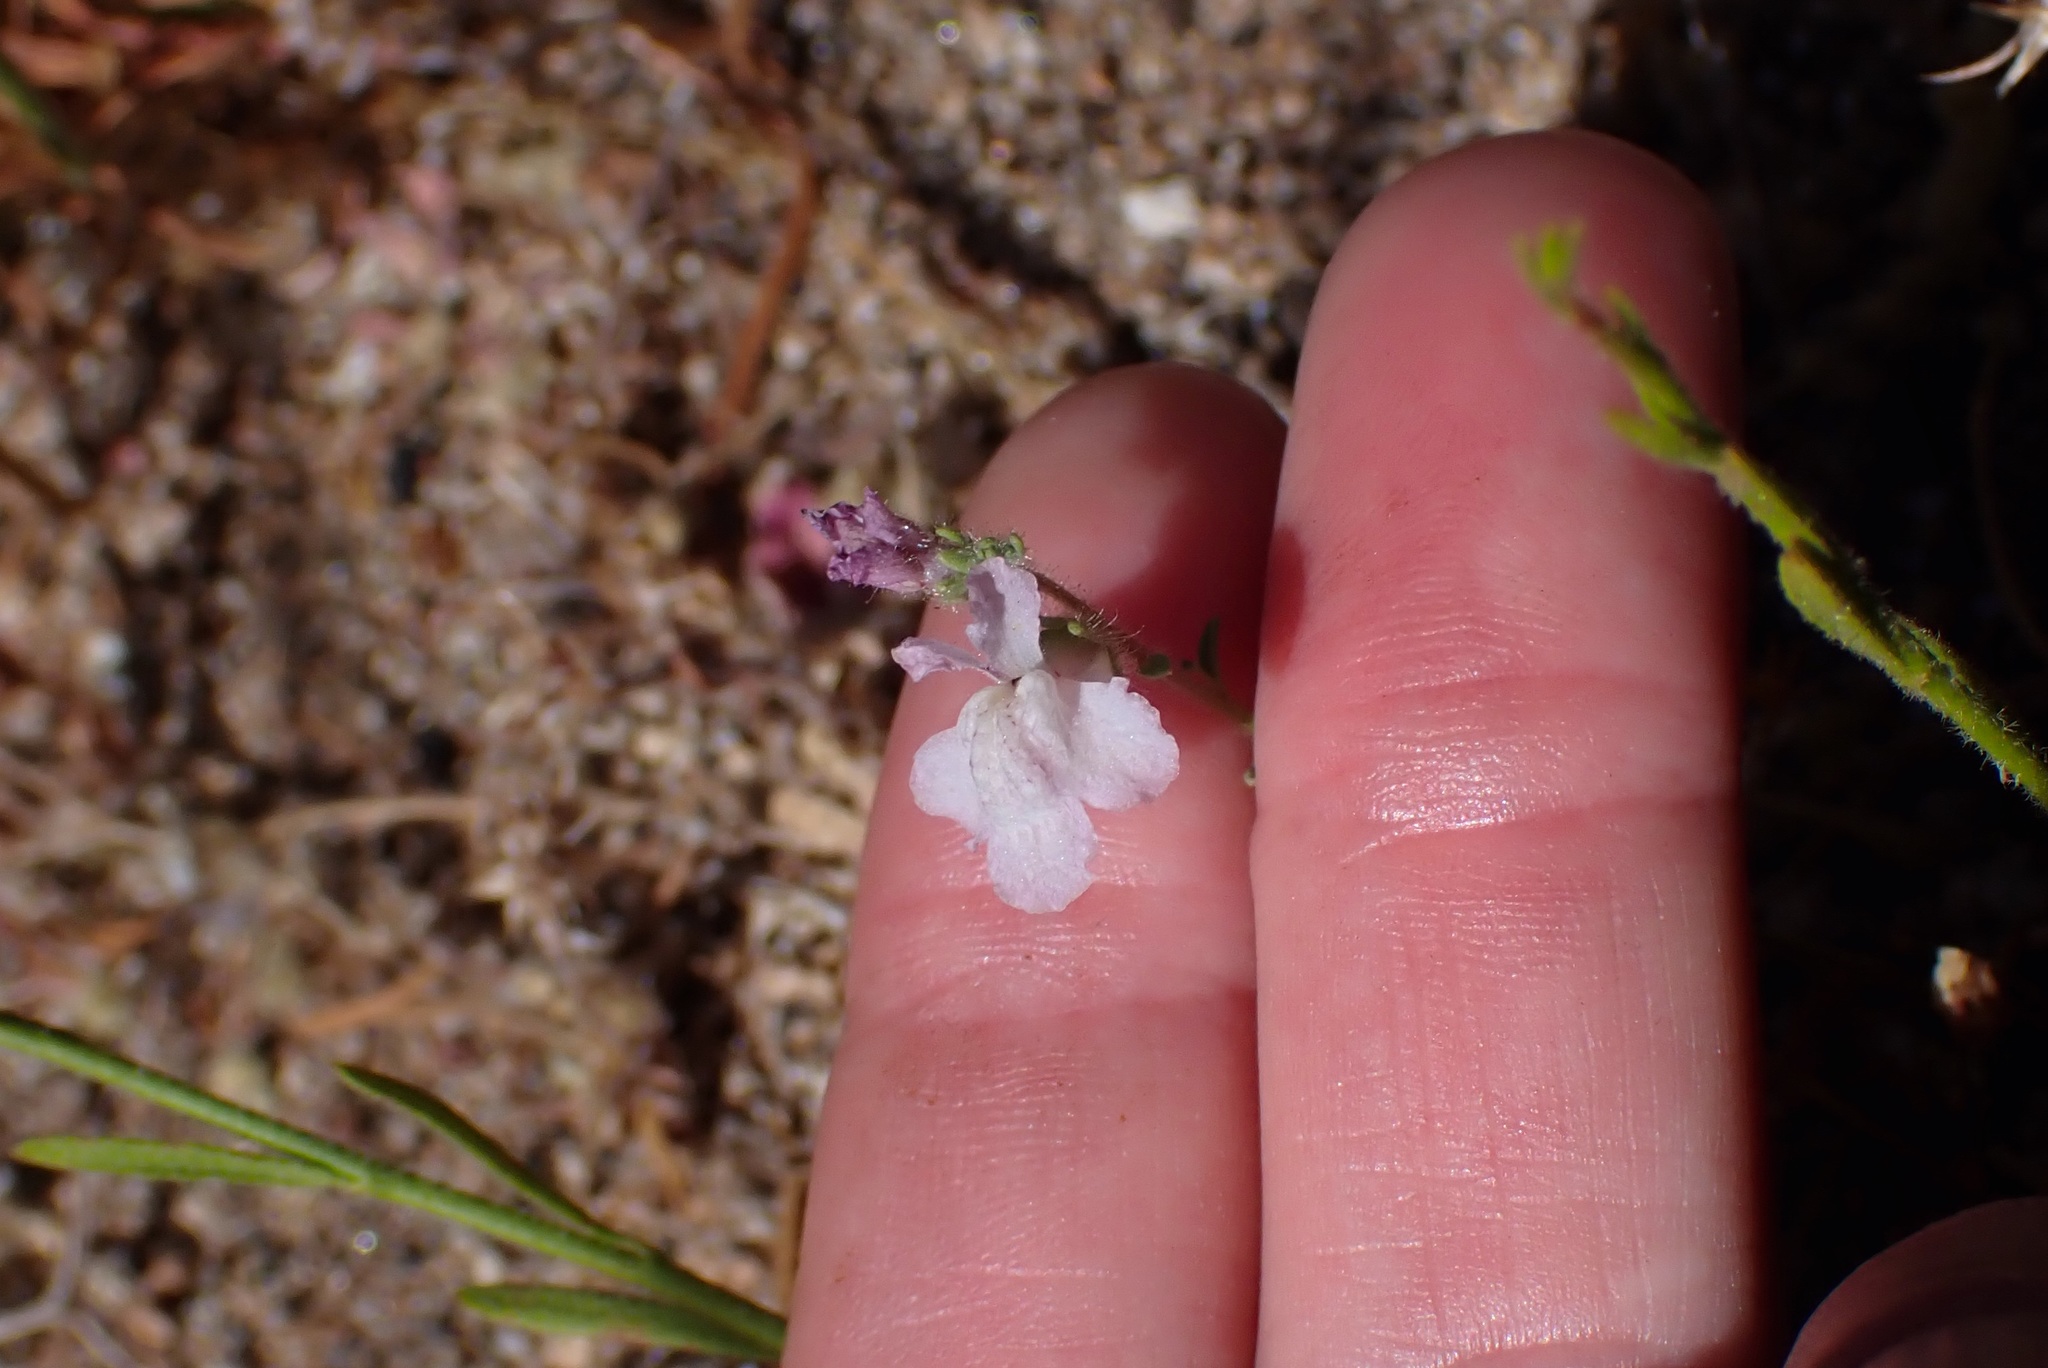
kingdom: Plantae
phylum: Tracheophyta
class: Magnoliopsida
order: Lamiales
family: Plantaginaceae
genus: Sairocarpus
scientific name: Sairocarpus coulterianus
